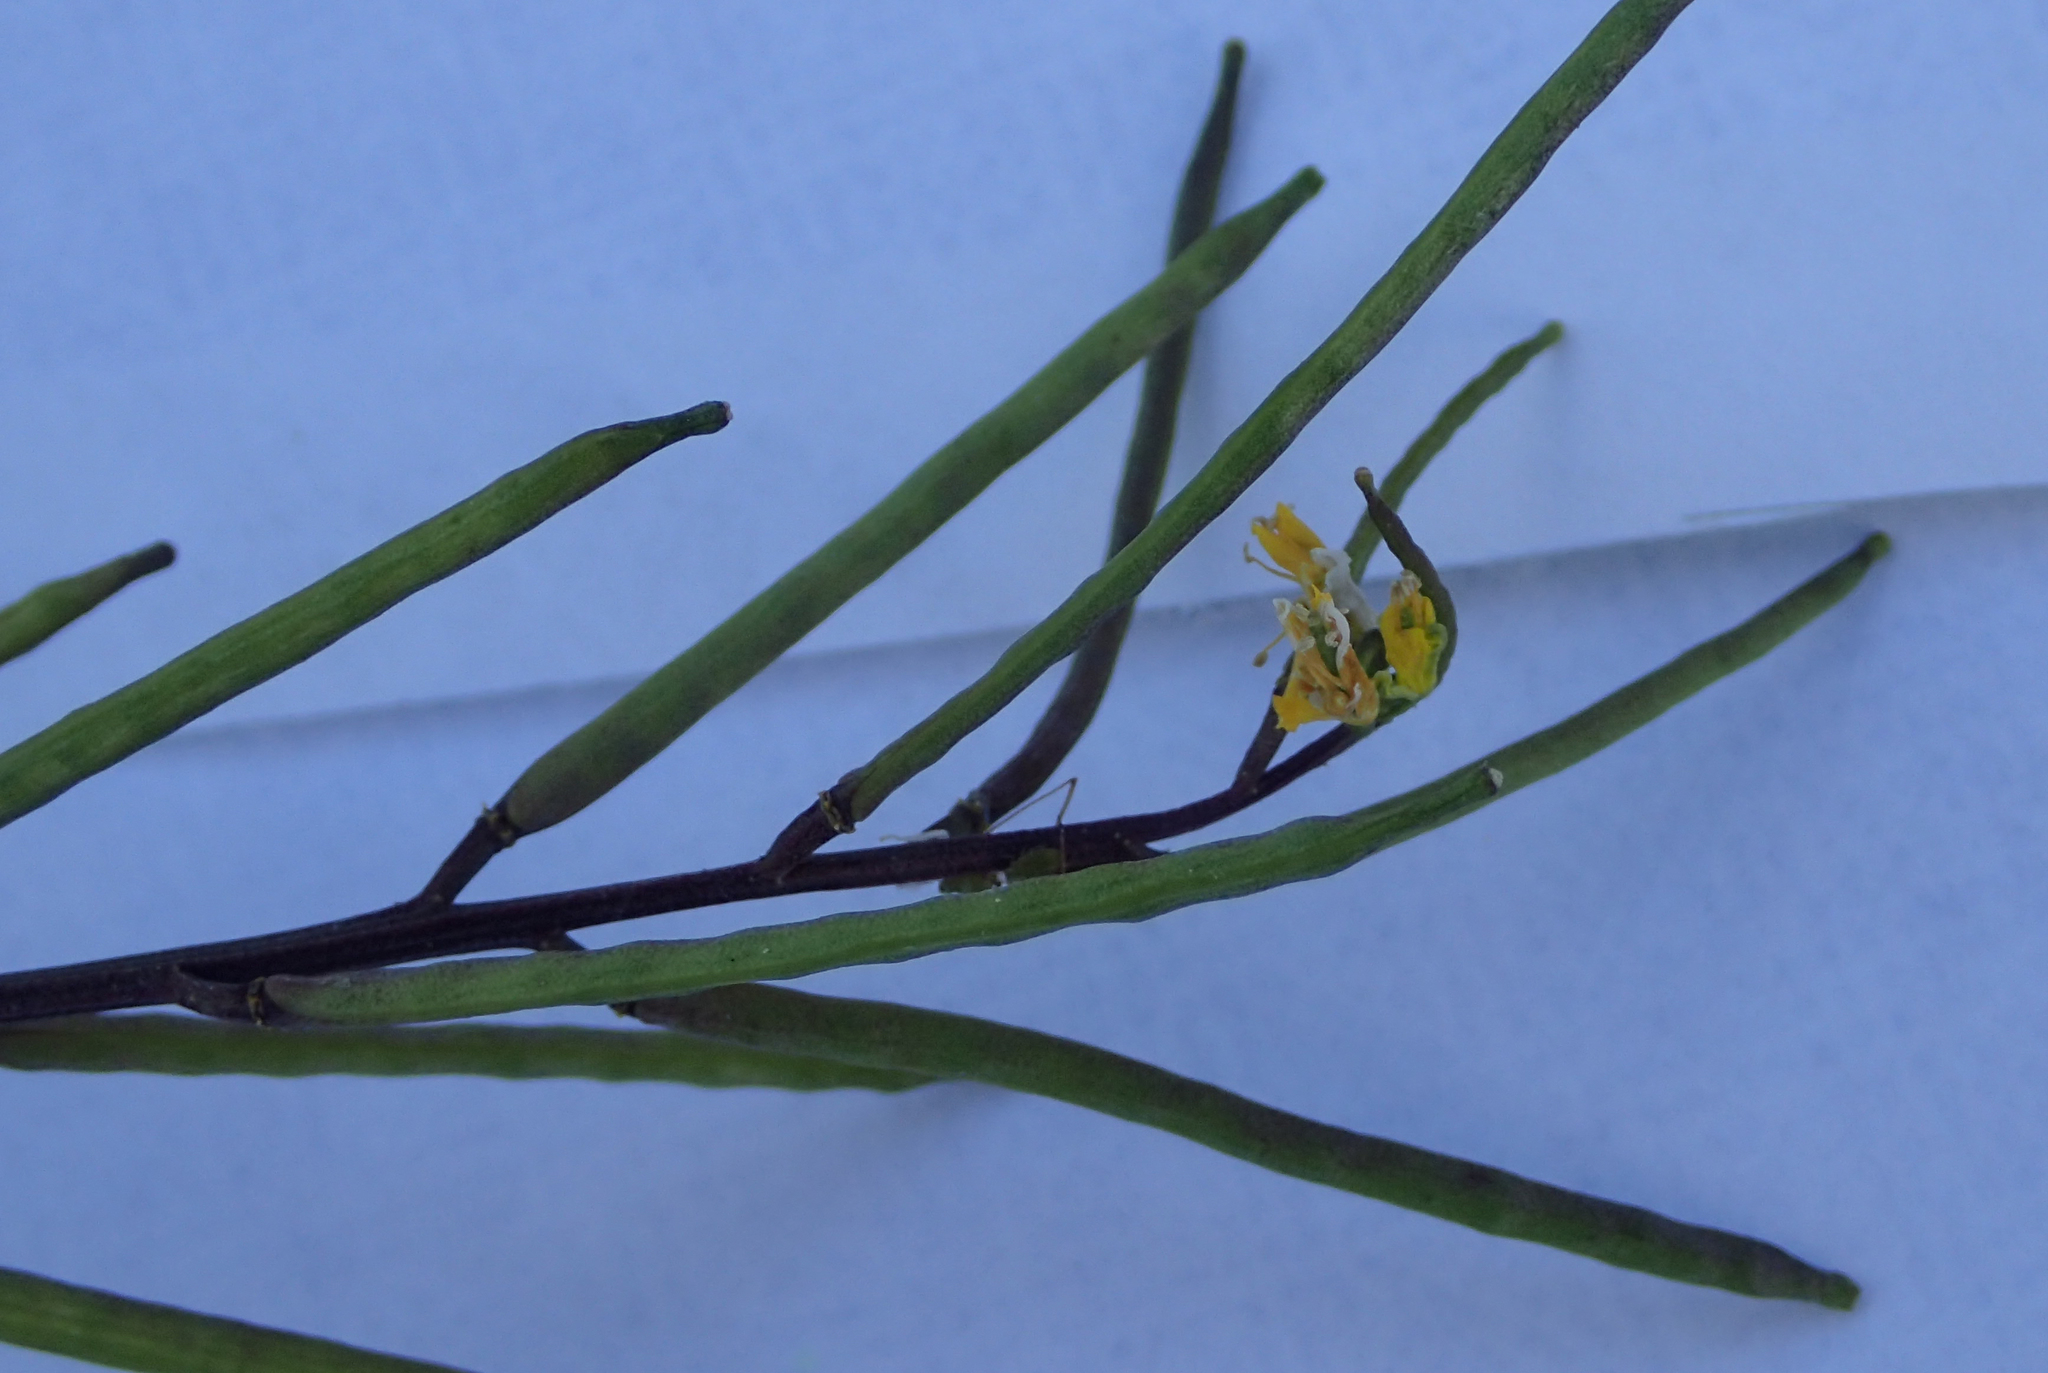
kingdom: Plantae
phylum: Tracheophyta
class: Magnoliopsida
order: Brassicales
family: Brassicaceae
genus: Barbarea
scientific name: Barbarea orthoceras
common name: American wintercress
